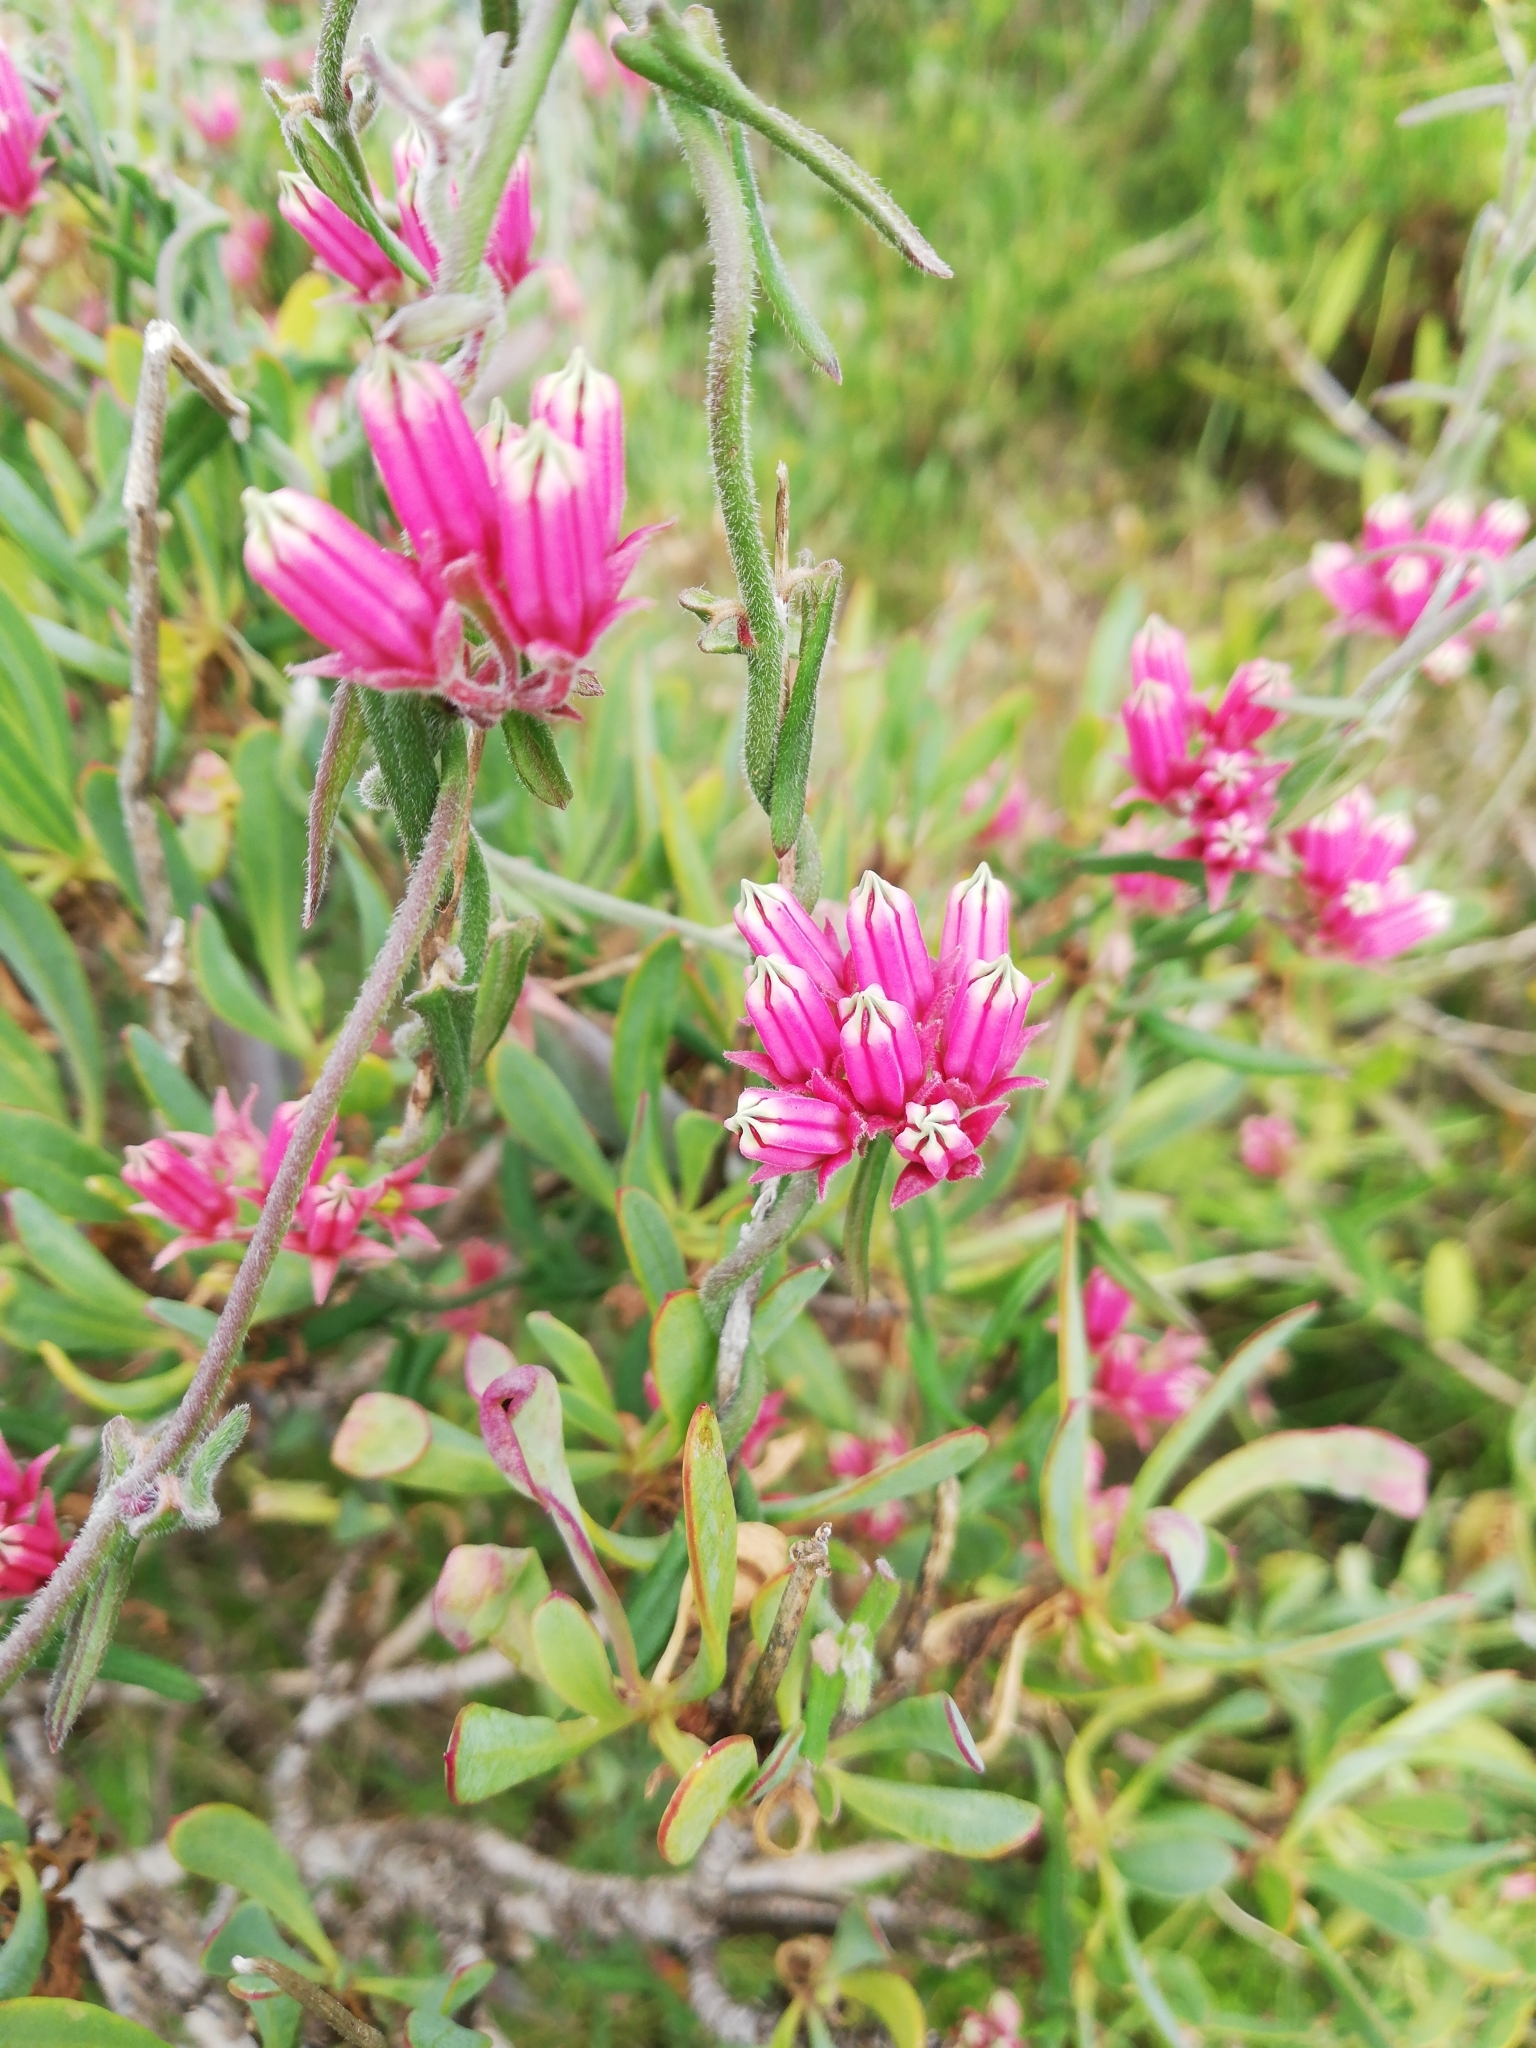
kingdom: Plantae
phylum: Tracheophyta
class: Magnoliopsida
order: Gentianales
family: Apocynaceae
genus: Microloma
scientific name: Microloma sagittatum
